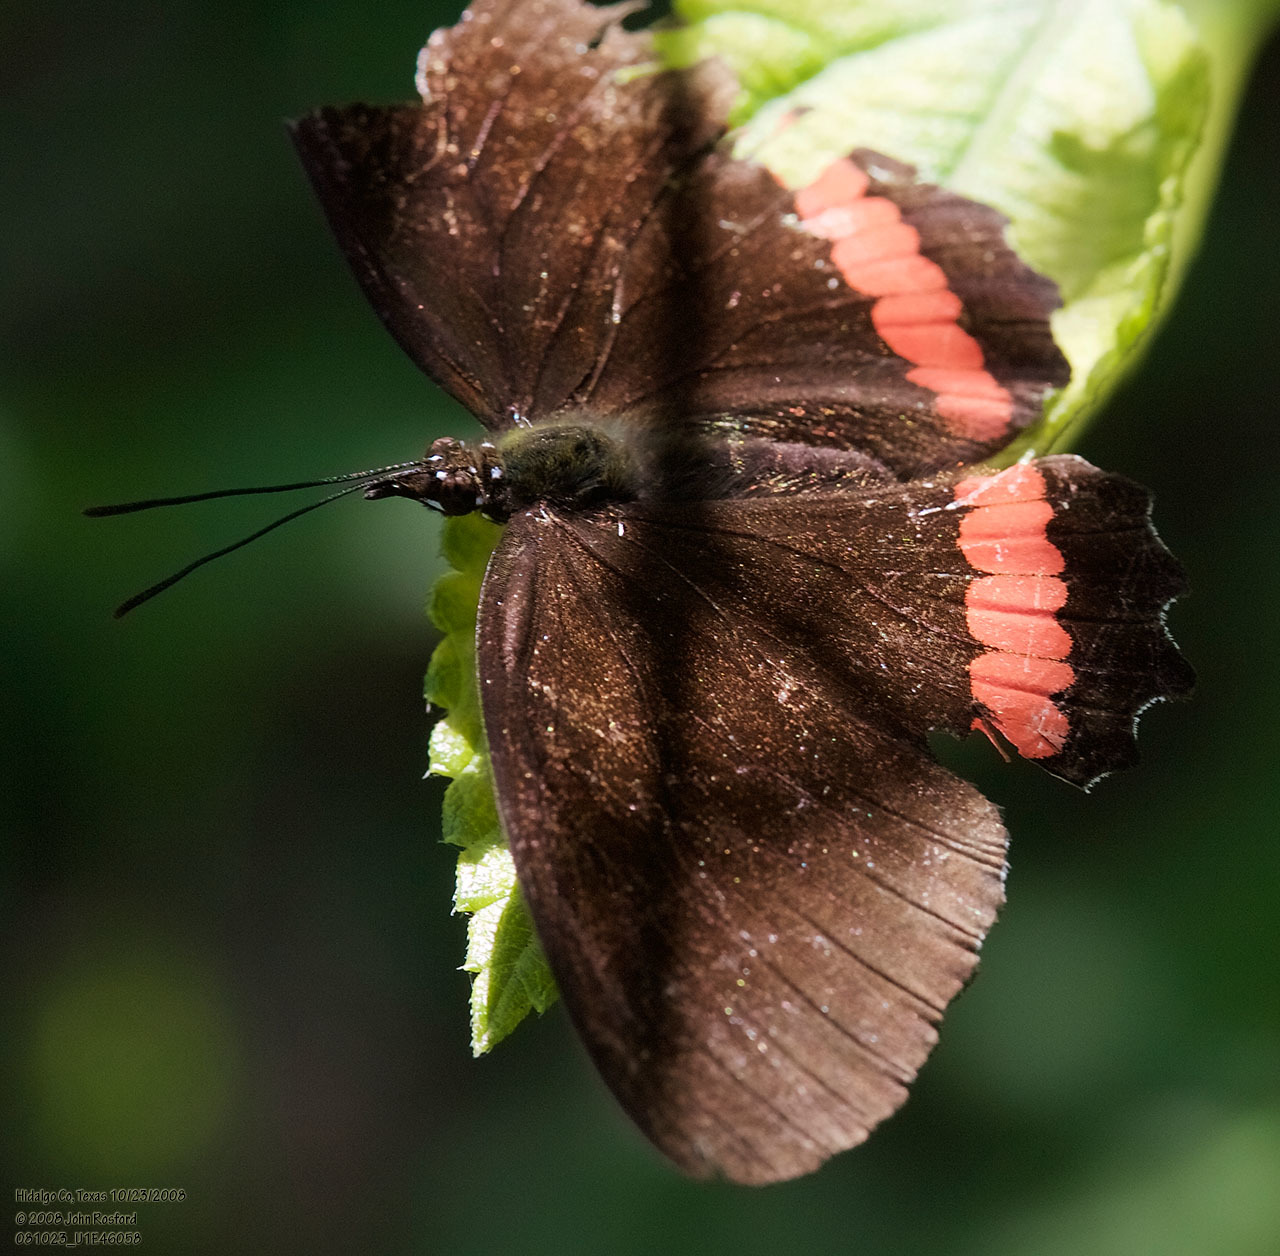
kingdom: Animalia
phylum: Arthropoda
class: Insecta
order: Lepidoptera
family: Nymphalidae
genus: Biblis
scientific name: Biblis aganisa
